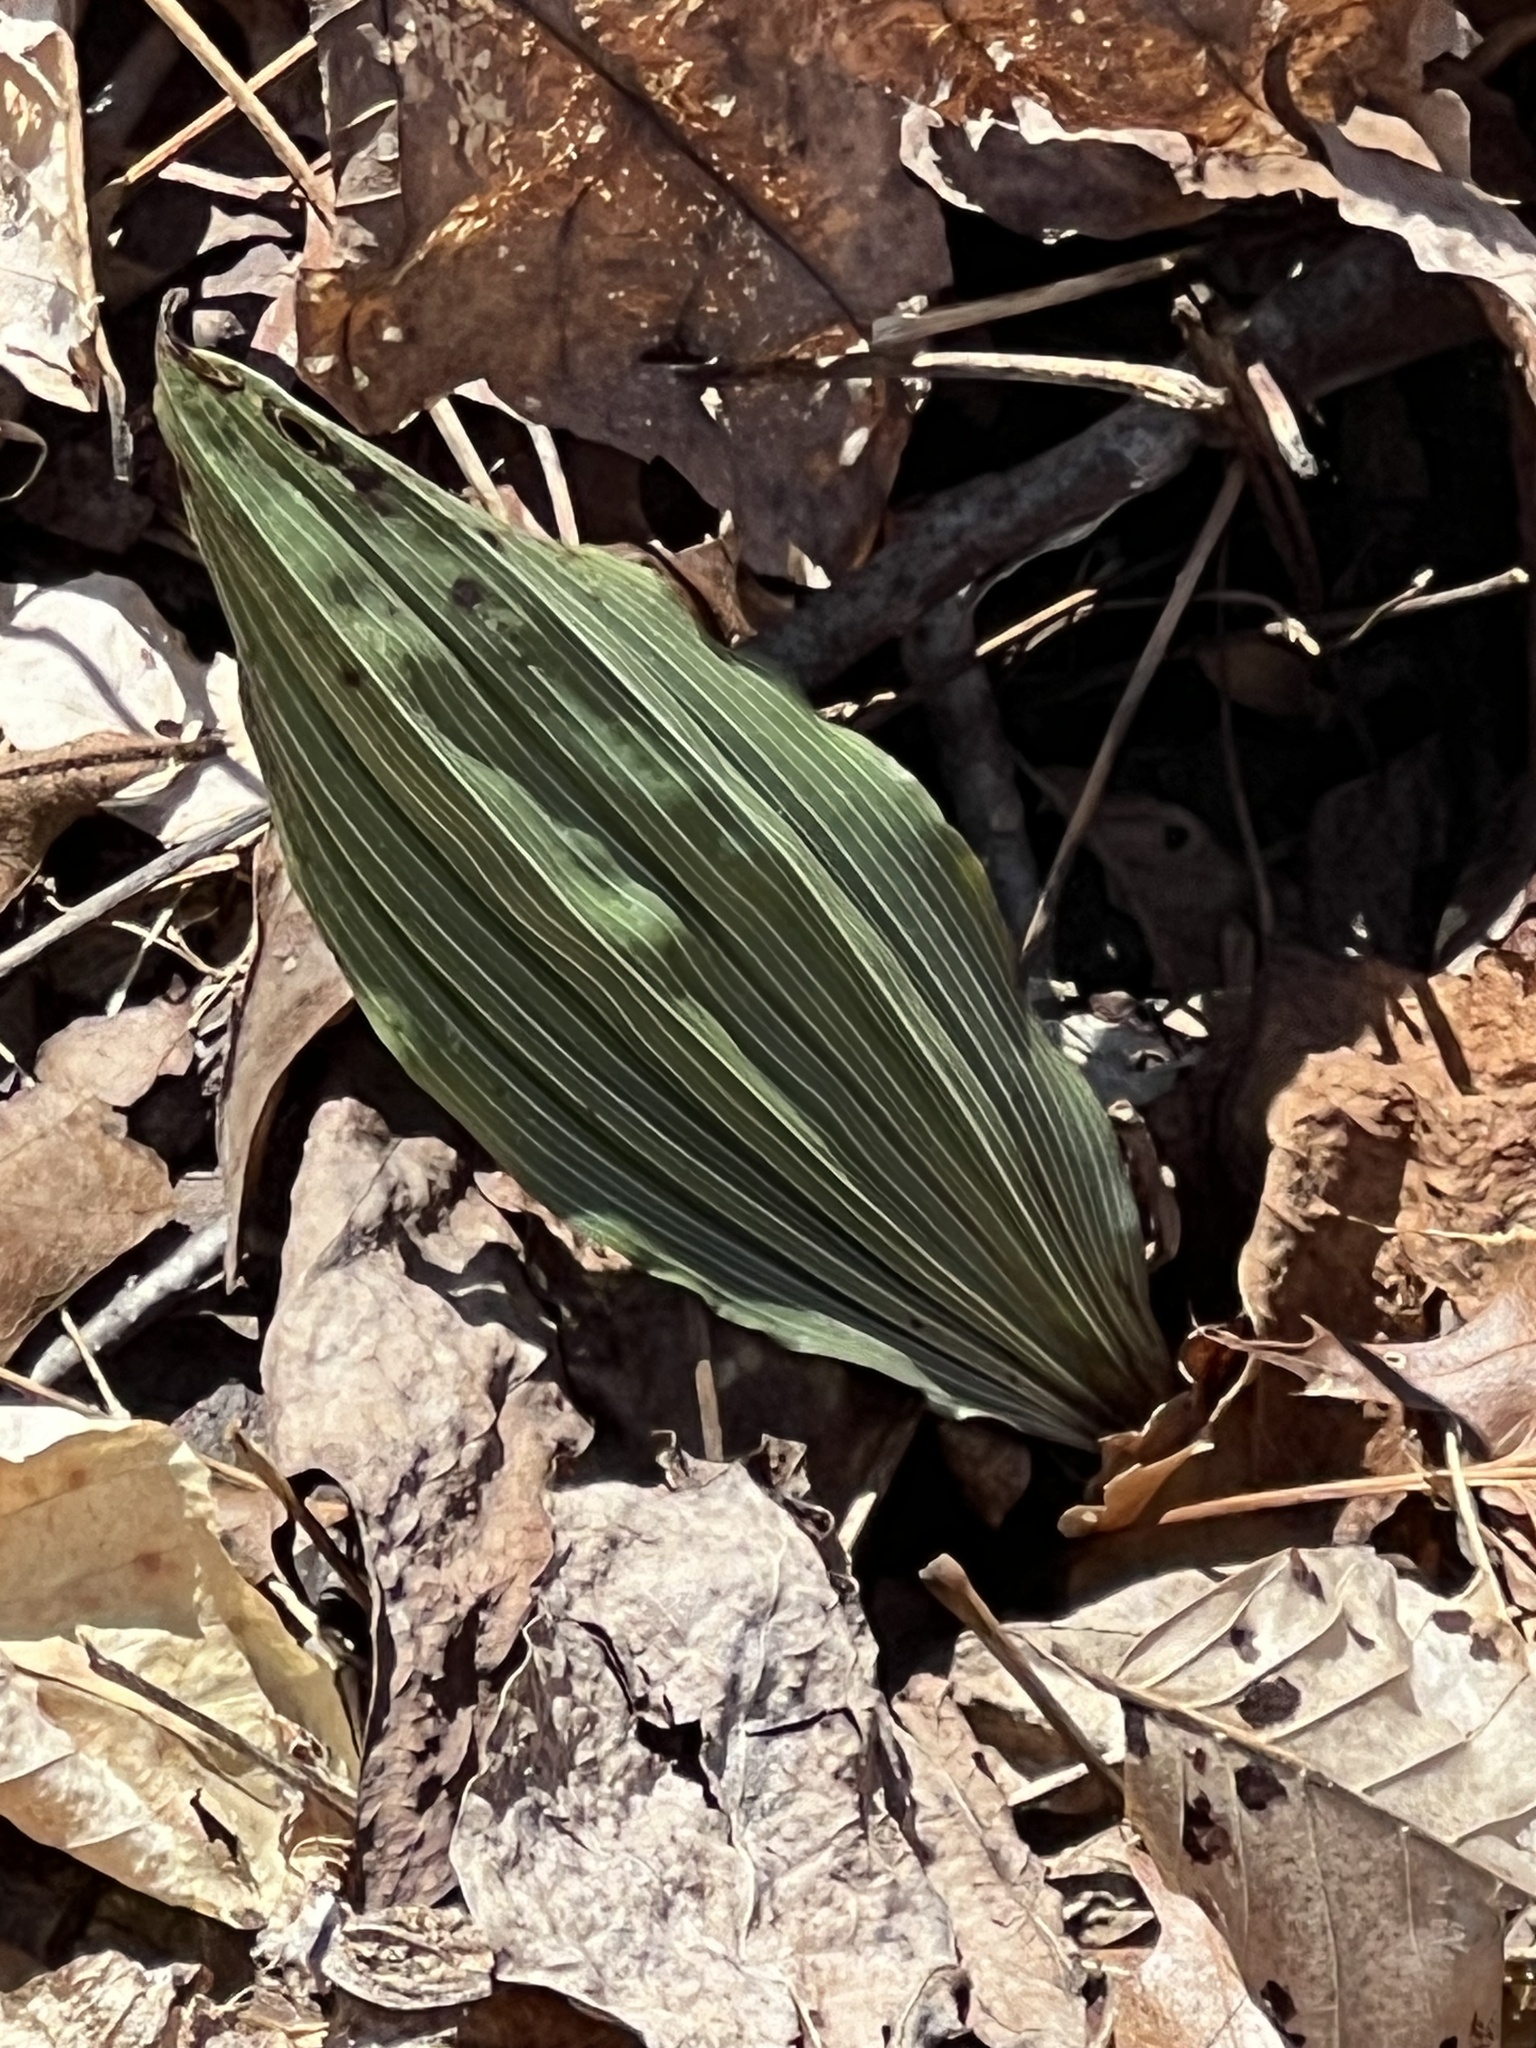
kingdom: Plantae
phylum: Tracheophyta
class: Liliopsida
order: Asparagales
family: Orchidaceae
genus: Aplectrum
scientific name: Aplectrum hyemale
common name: Adam-and-eve
